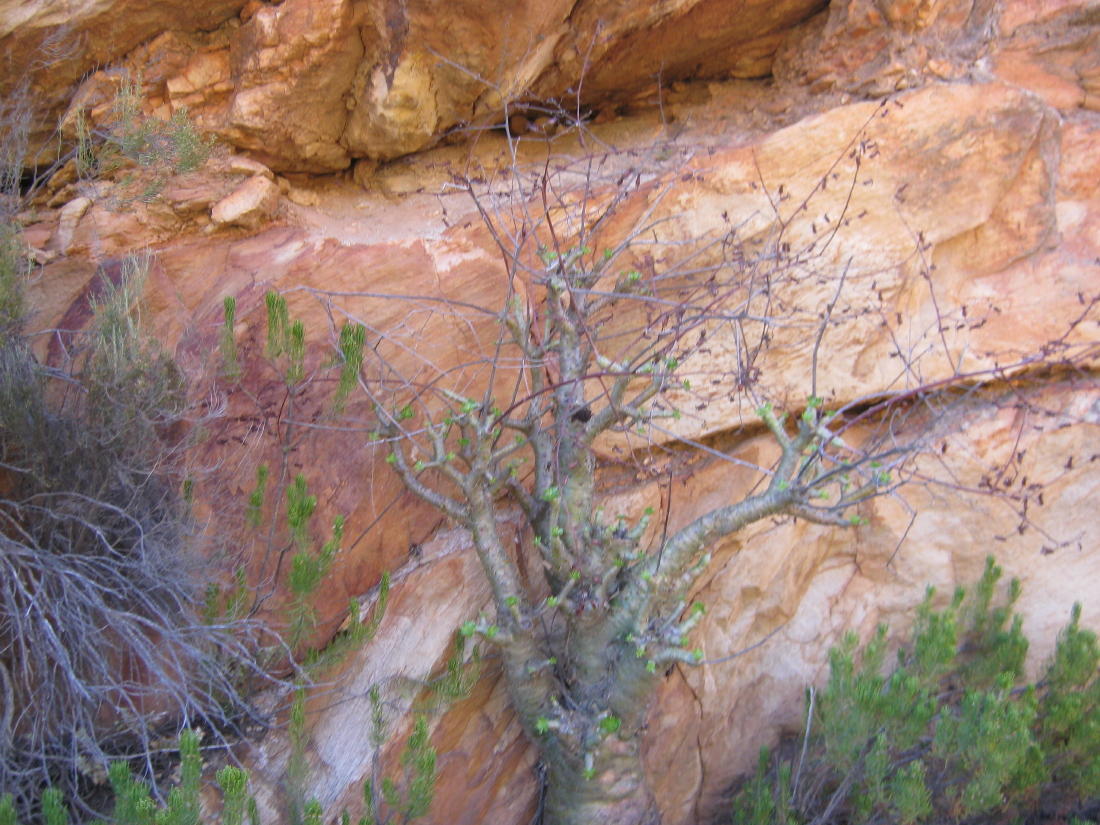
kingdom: Plantae
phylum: Tracheophyta
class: Magnoliopsida
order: Saxifragales
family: Crassulaceae
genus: Tylecodon
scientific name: Tylecodon paniculatus
